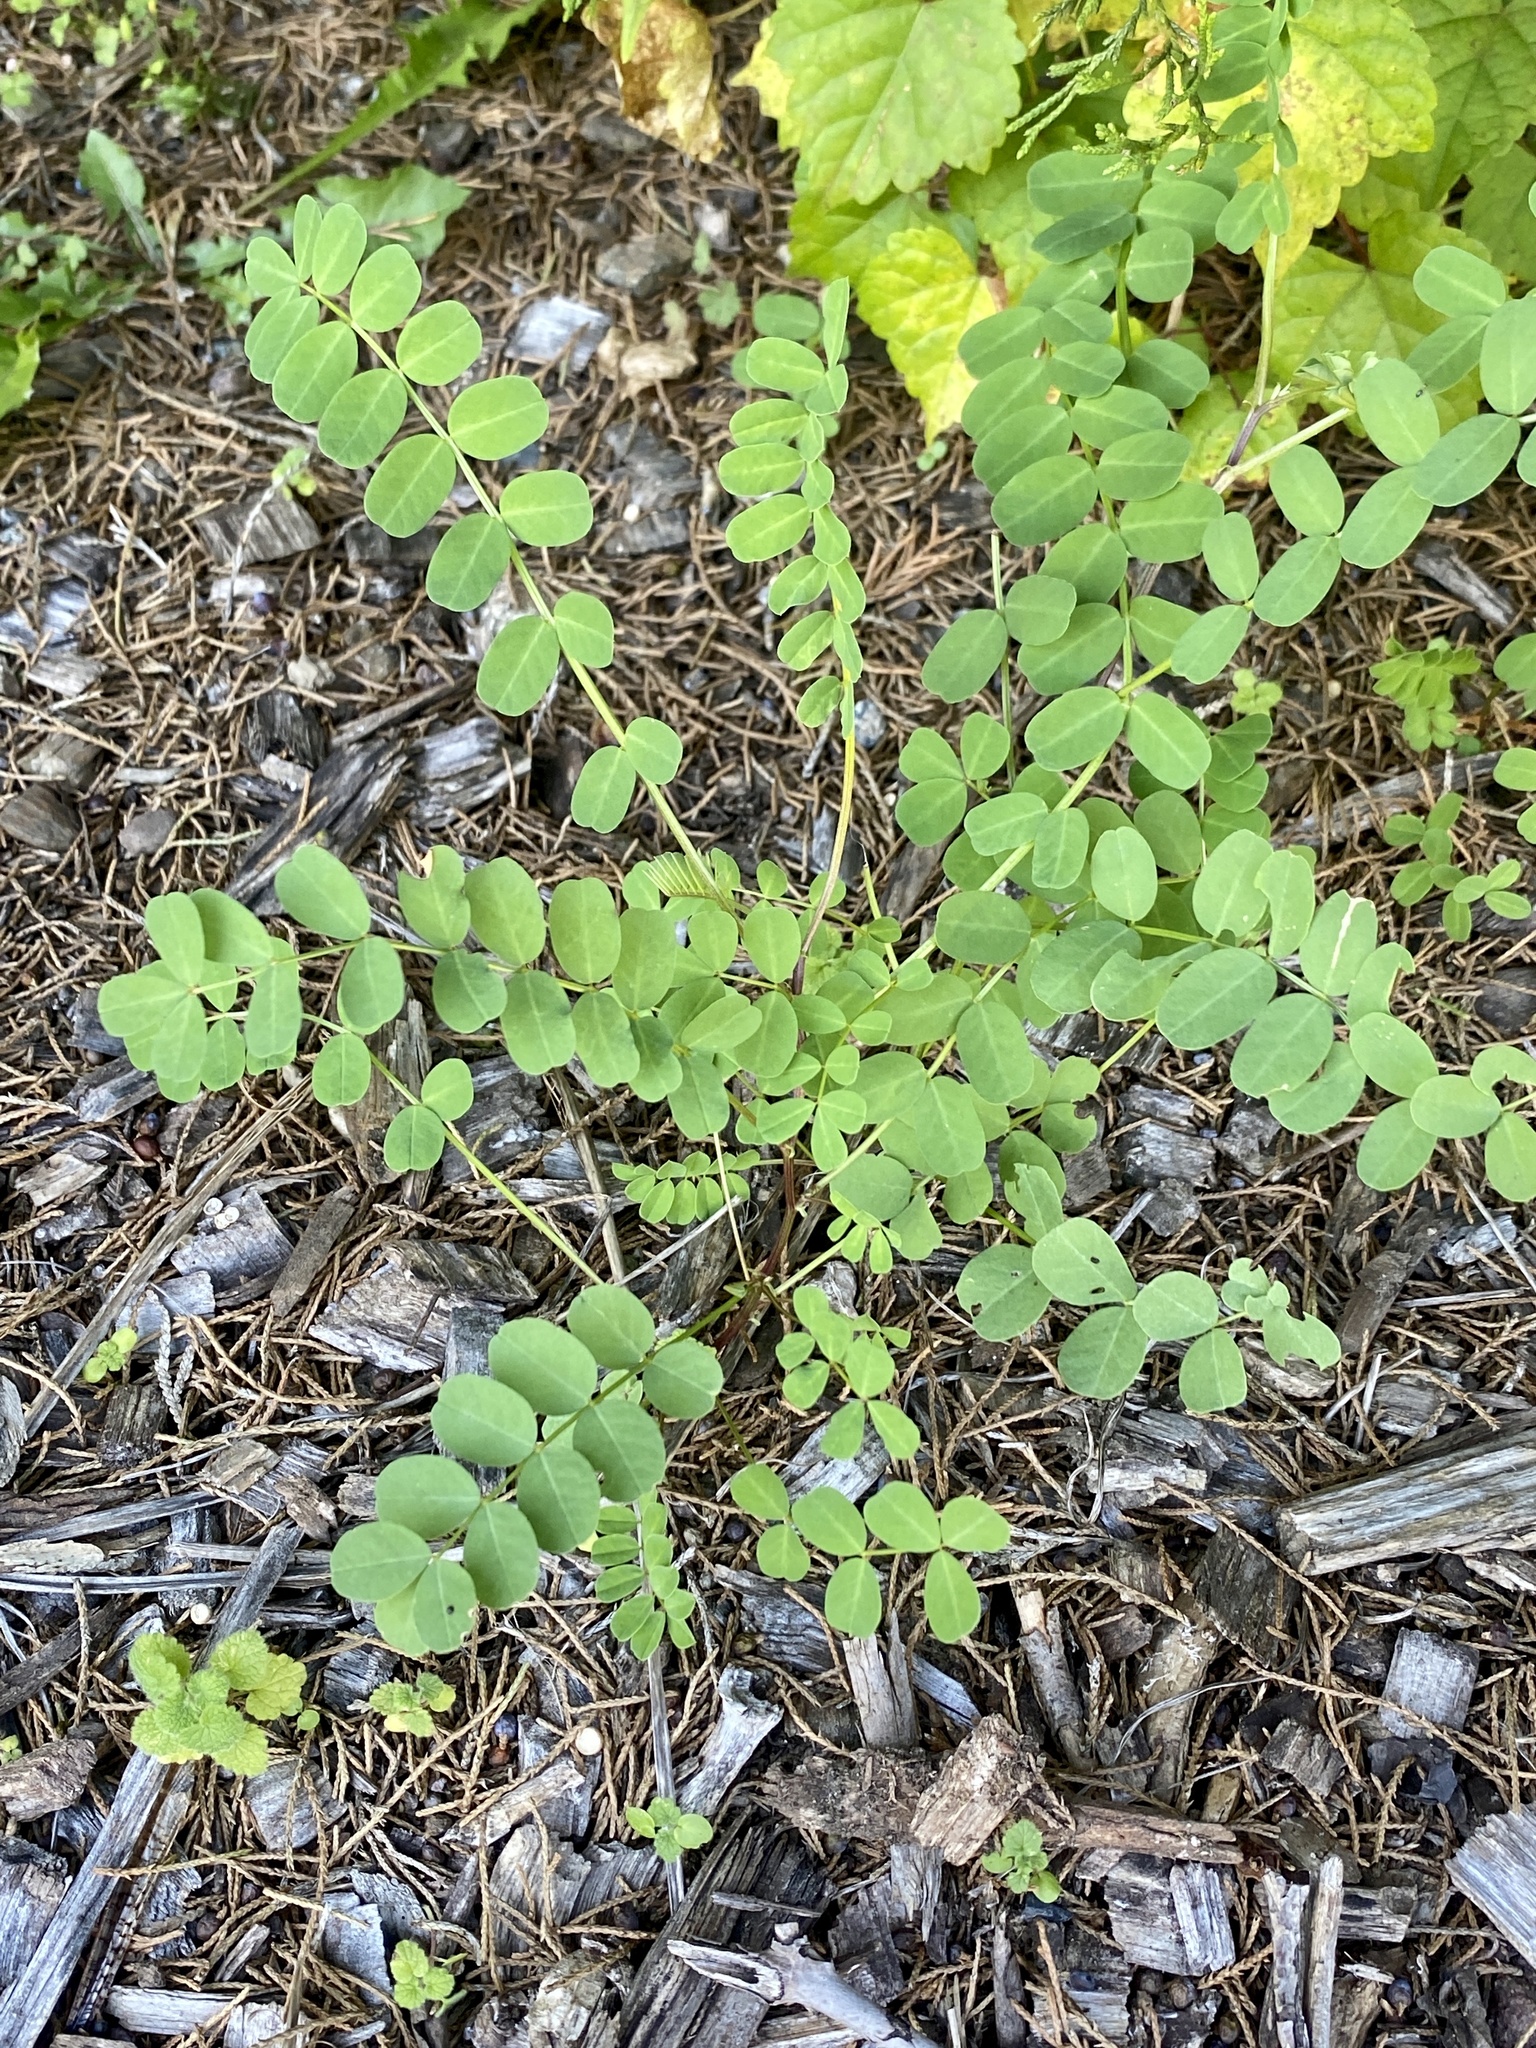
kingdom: Plantae
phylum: Tracheophyta
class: Magnoliopsida
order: Fabales
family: Fabaceae
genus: Coronilla
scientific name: Coronilla varia
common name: Crownvetch
